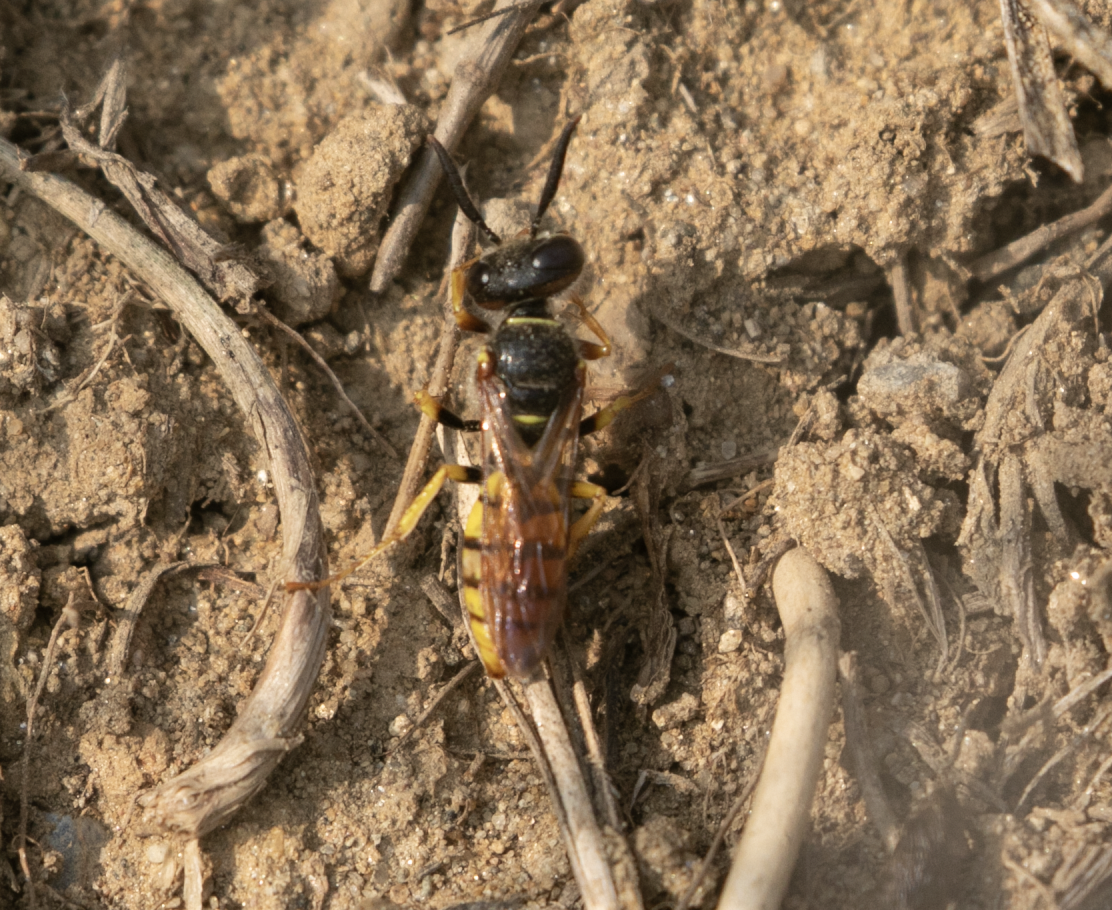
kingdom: Animalia
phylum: Arthropoda
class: Insecta
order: Hymenoptera
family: Crabronidae
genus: Philanthus
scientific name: Philanthus triangulum
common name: Bee wolf
